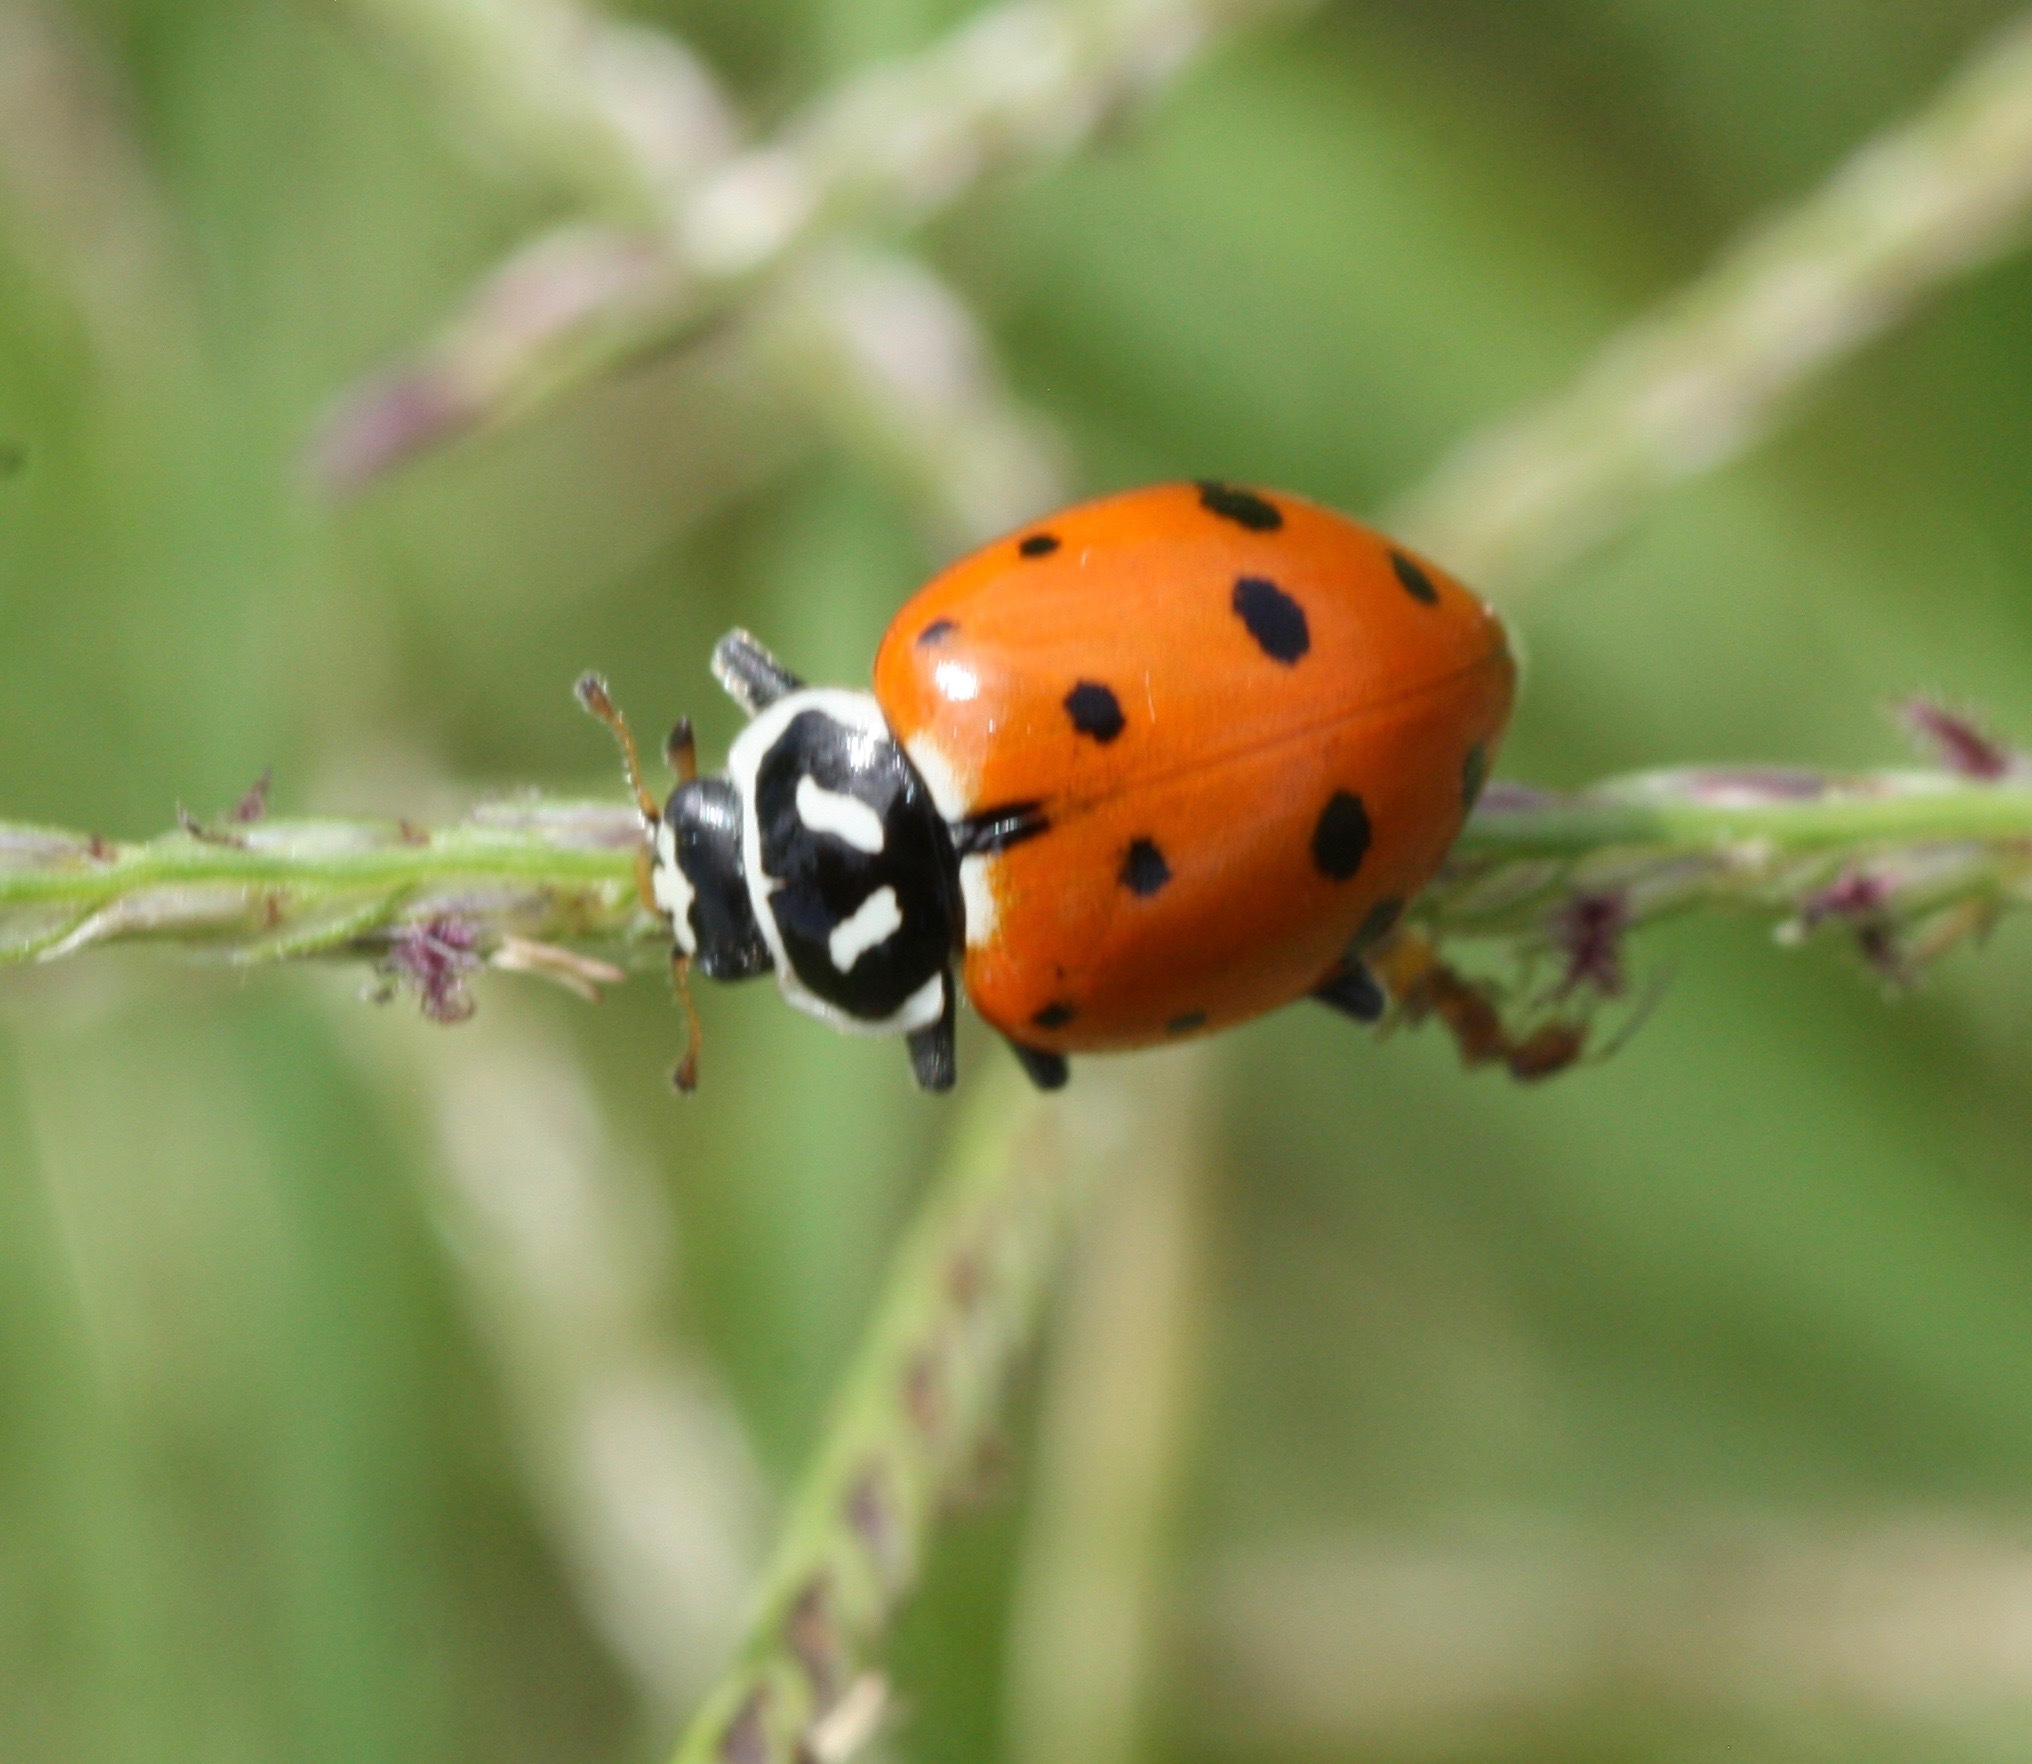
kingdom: Animalia
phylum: Arthropoda
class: Insecta
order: Coleoptera
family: Coccinellidae
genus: Hippodamia
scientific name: Hippodamia convergens
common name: Convergent lady beetle
